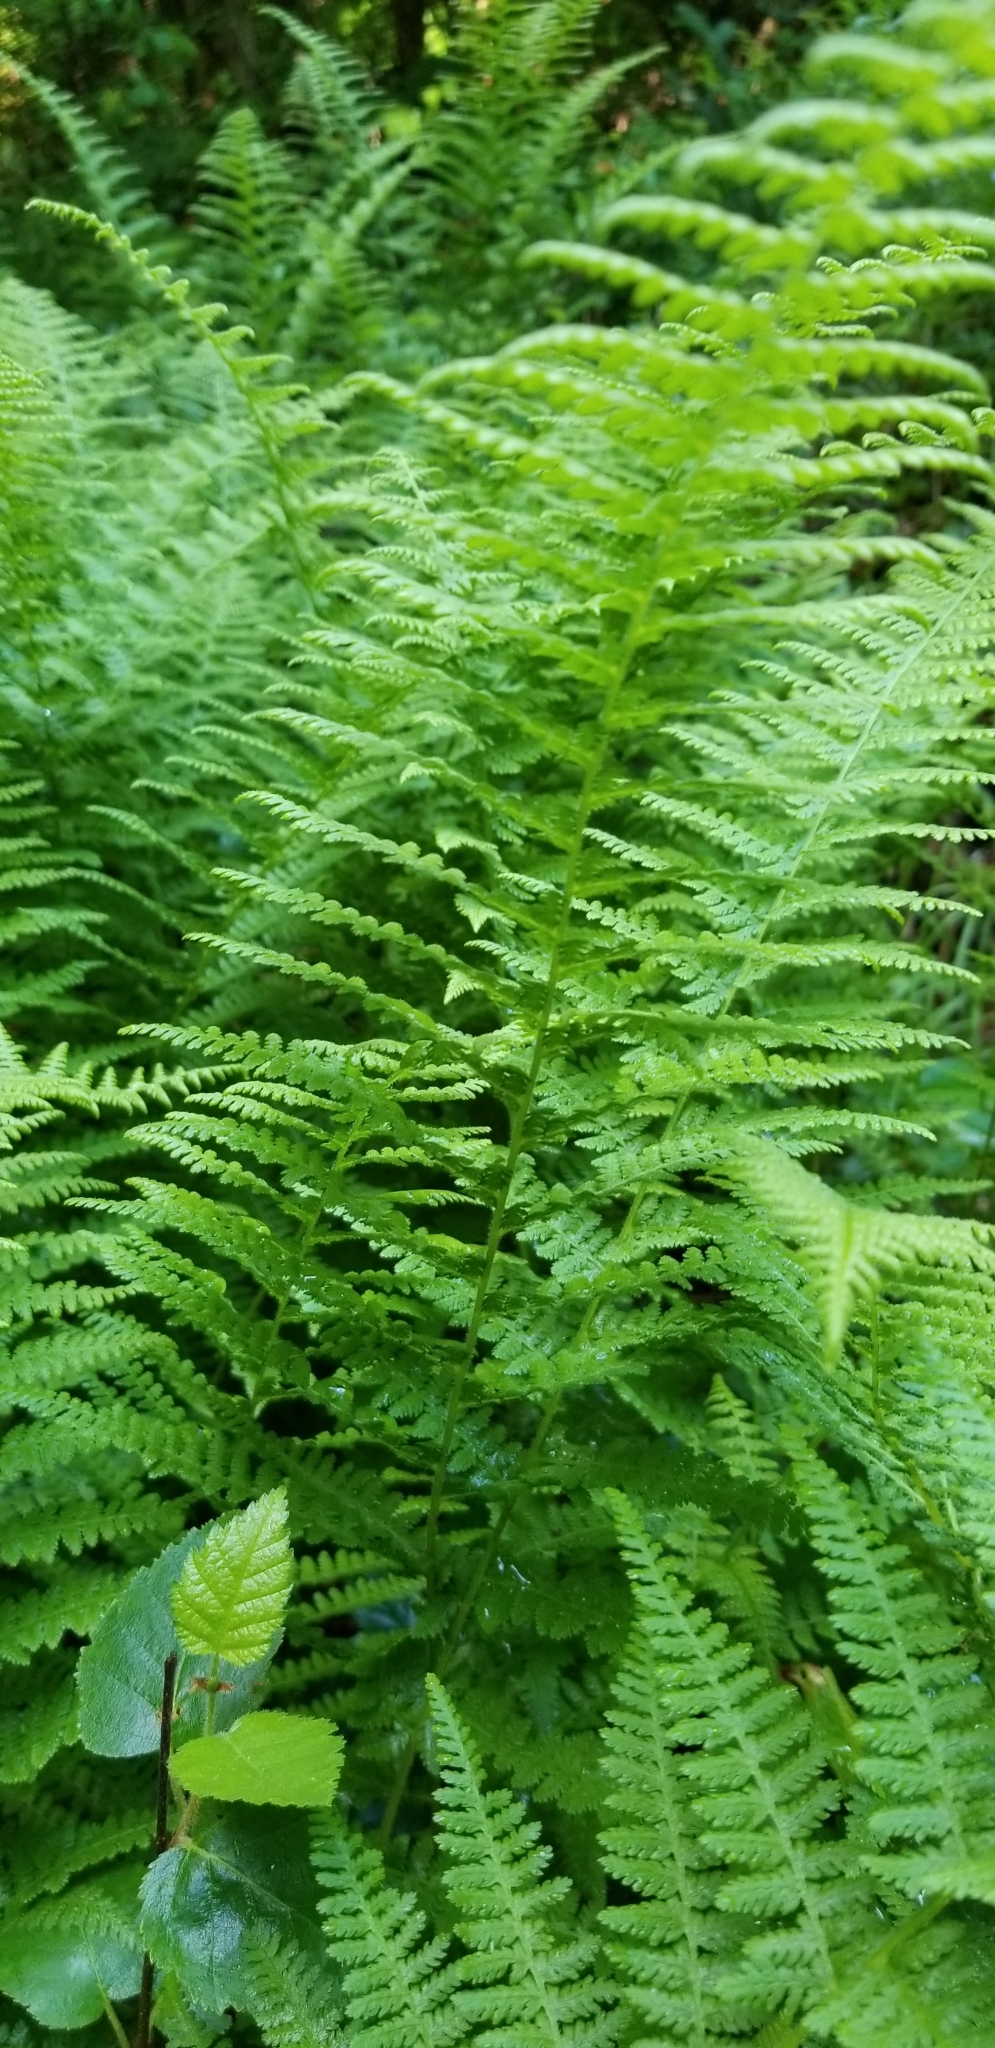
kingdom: Plantae
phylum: Tracheophyta
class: Polypodiopsida
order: Polypodiales
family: Dennstaedtiaceae
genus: Sitobolium
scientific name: Sitobolium punctilobum
